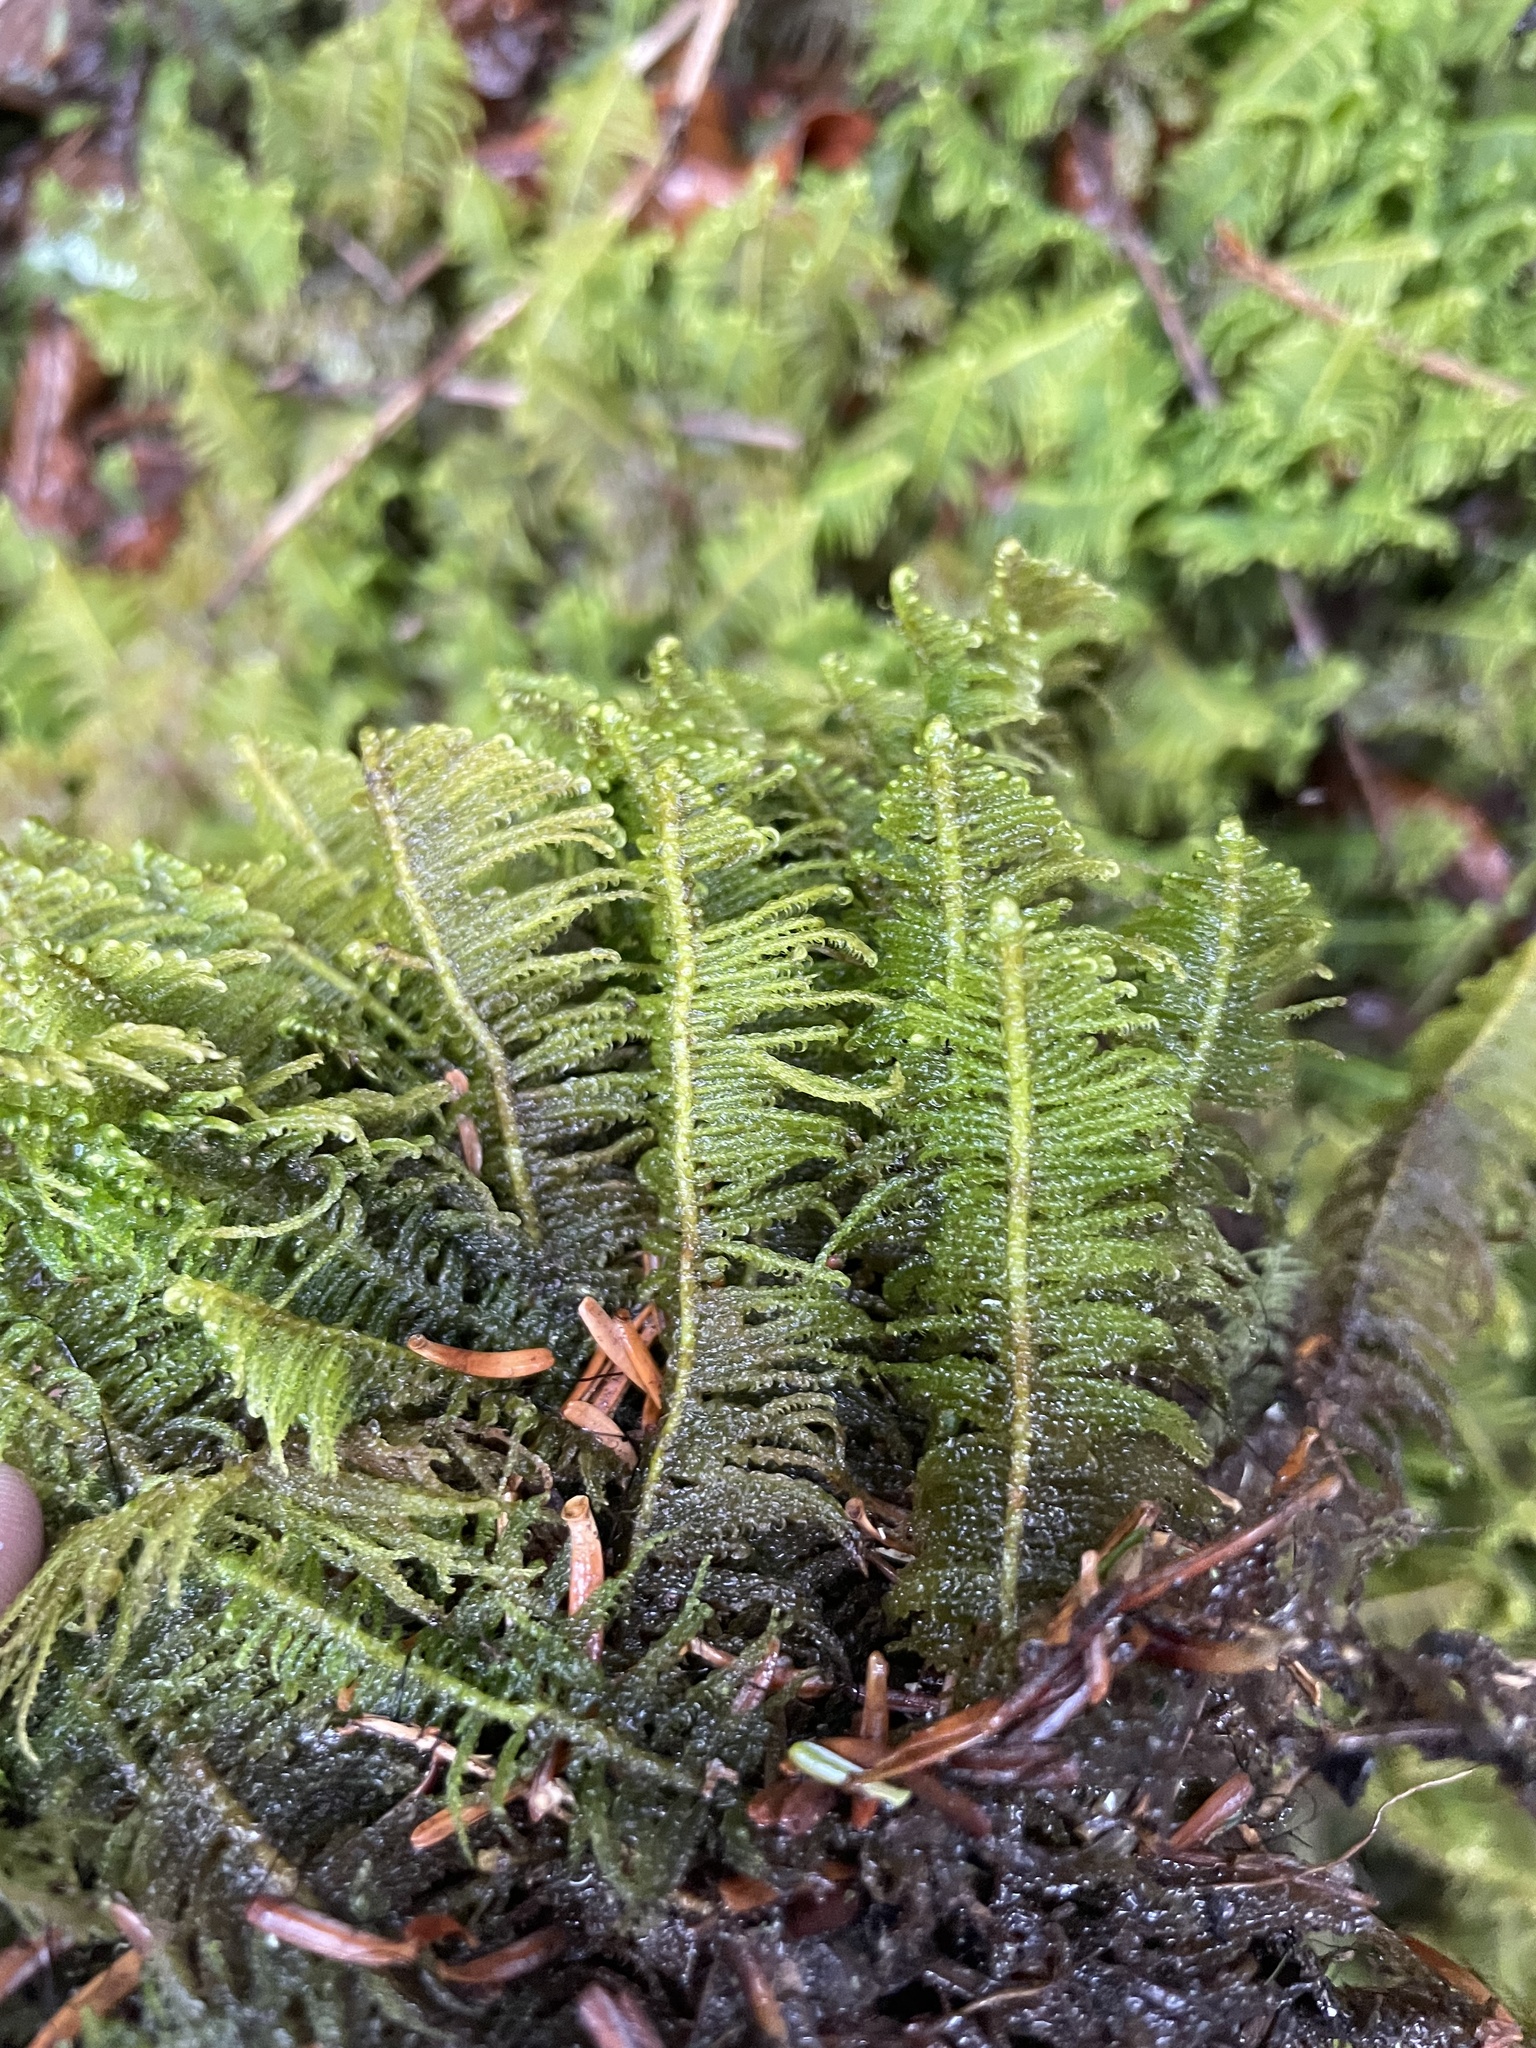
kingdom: Plantae
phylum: Bryophyta
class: Bryopsida
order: Hypnales
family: Pylaisiaceae
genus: Ptilium
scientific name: Ptilium crista-castrensis
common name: Knight's plume moss
